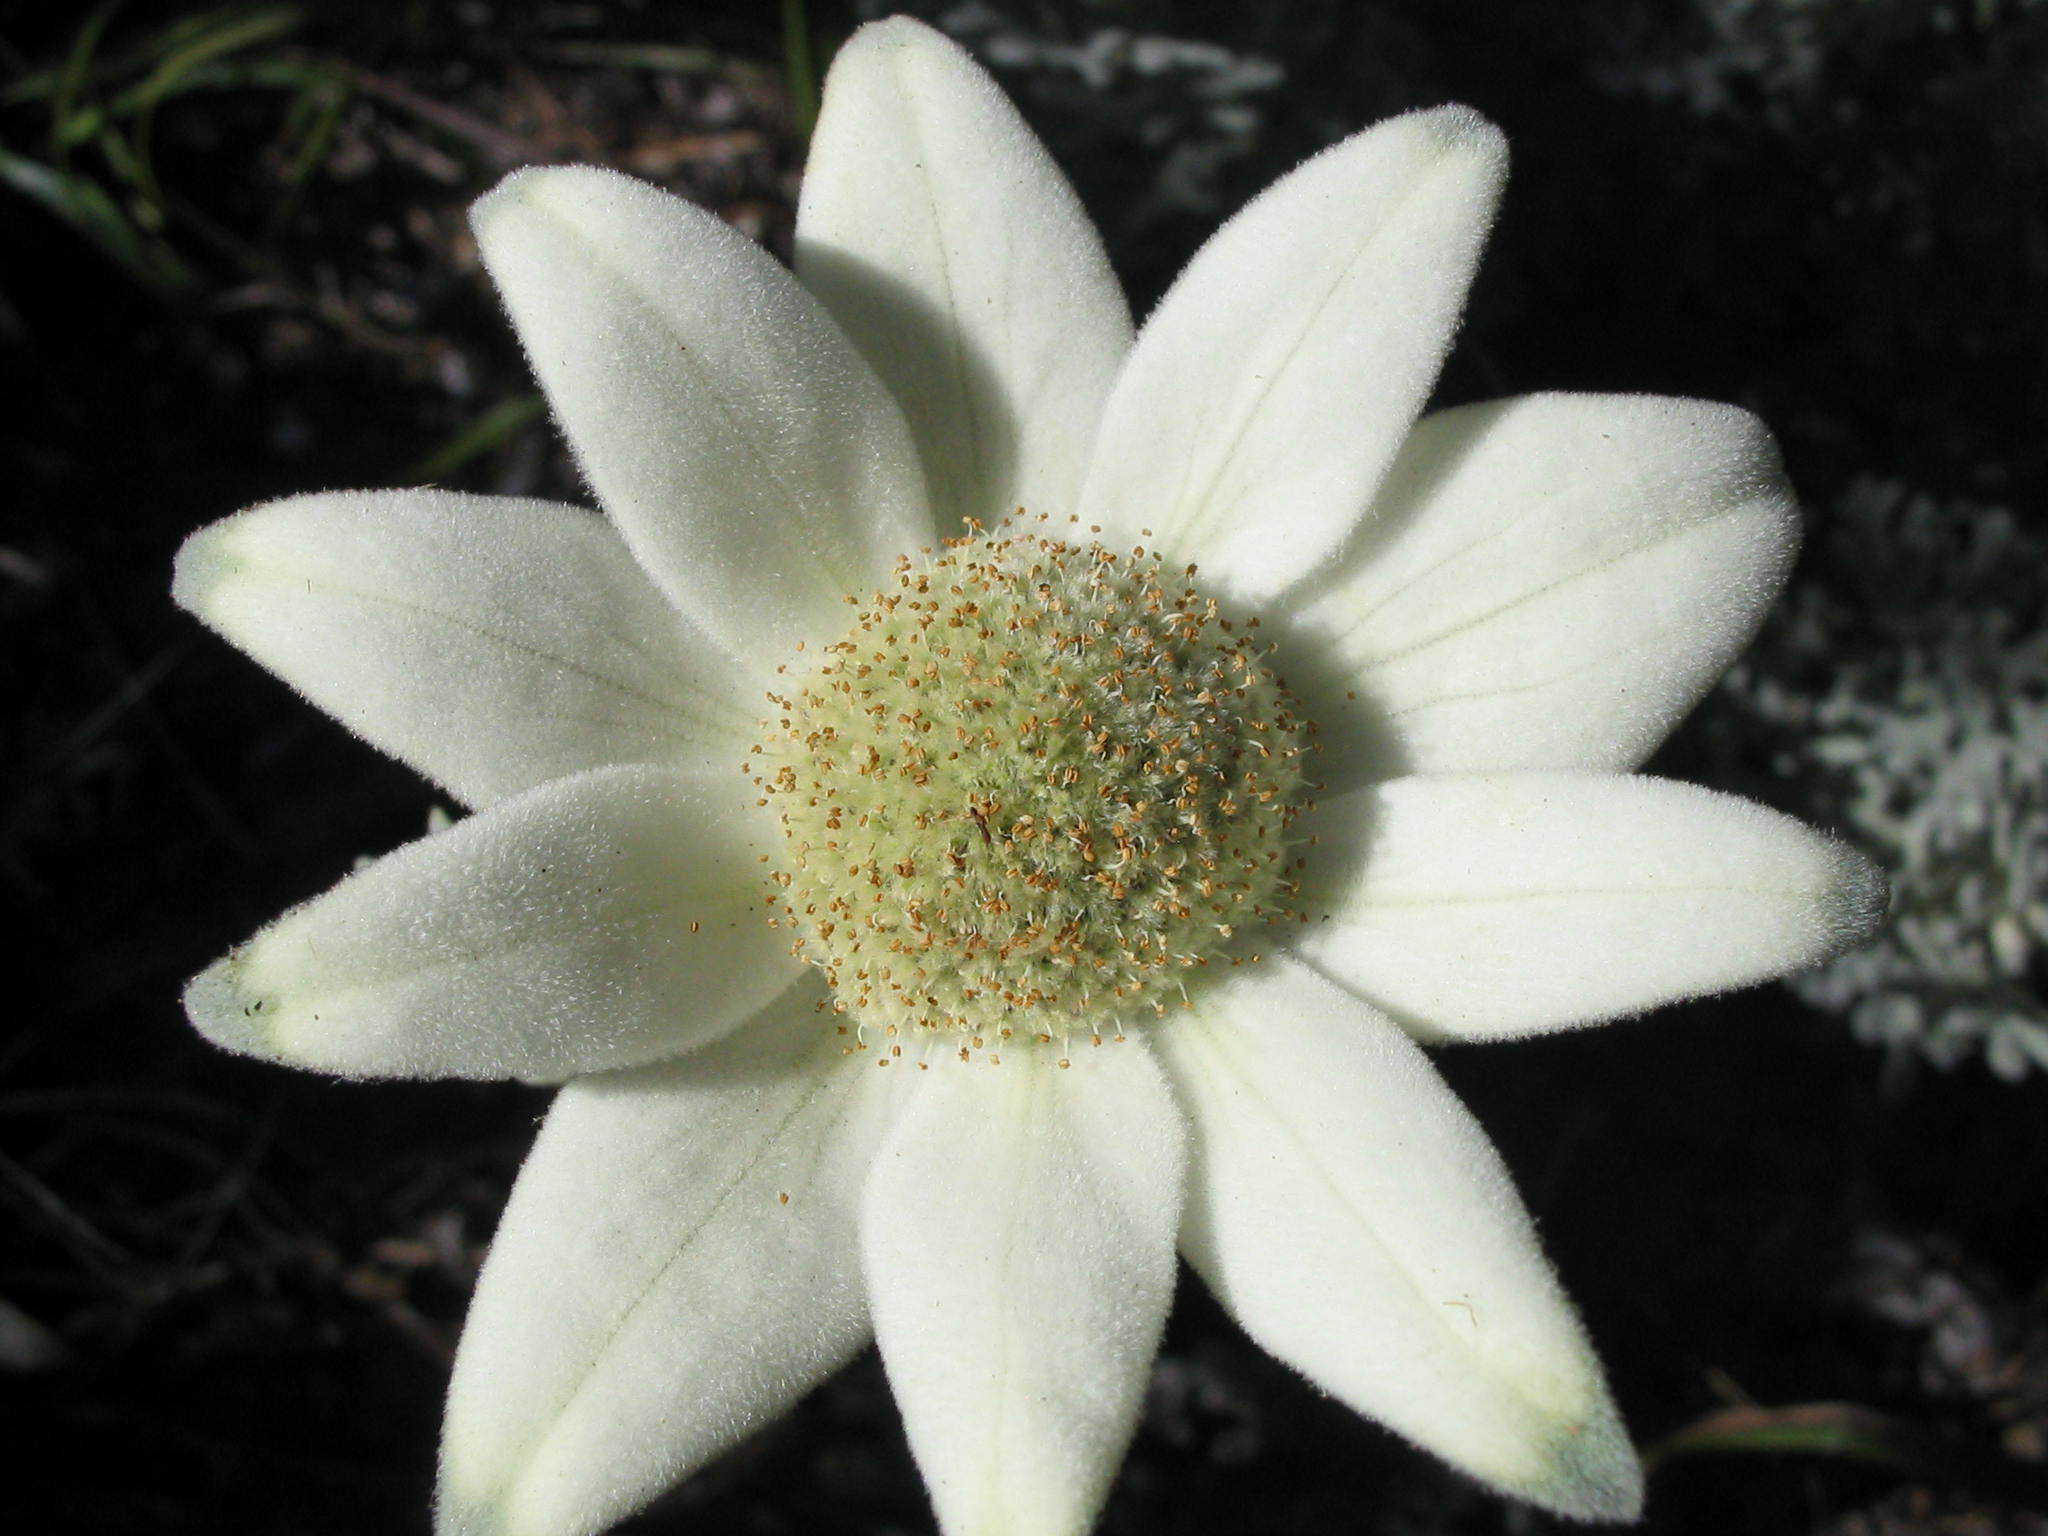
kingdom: Plantae
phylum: Tracheophyta
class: Magnoliopsida
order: Apiales
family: Apiaceae
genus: Actinotus
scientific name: Actinotus helianthi
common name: Flannel-flower
